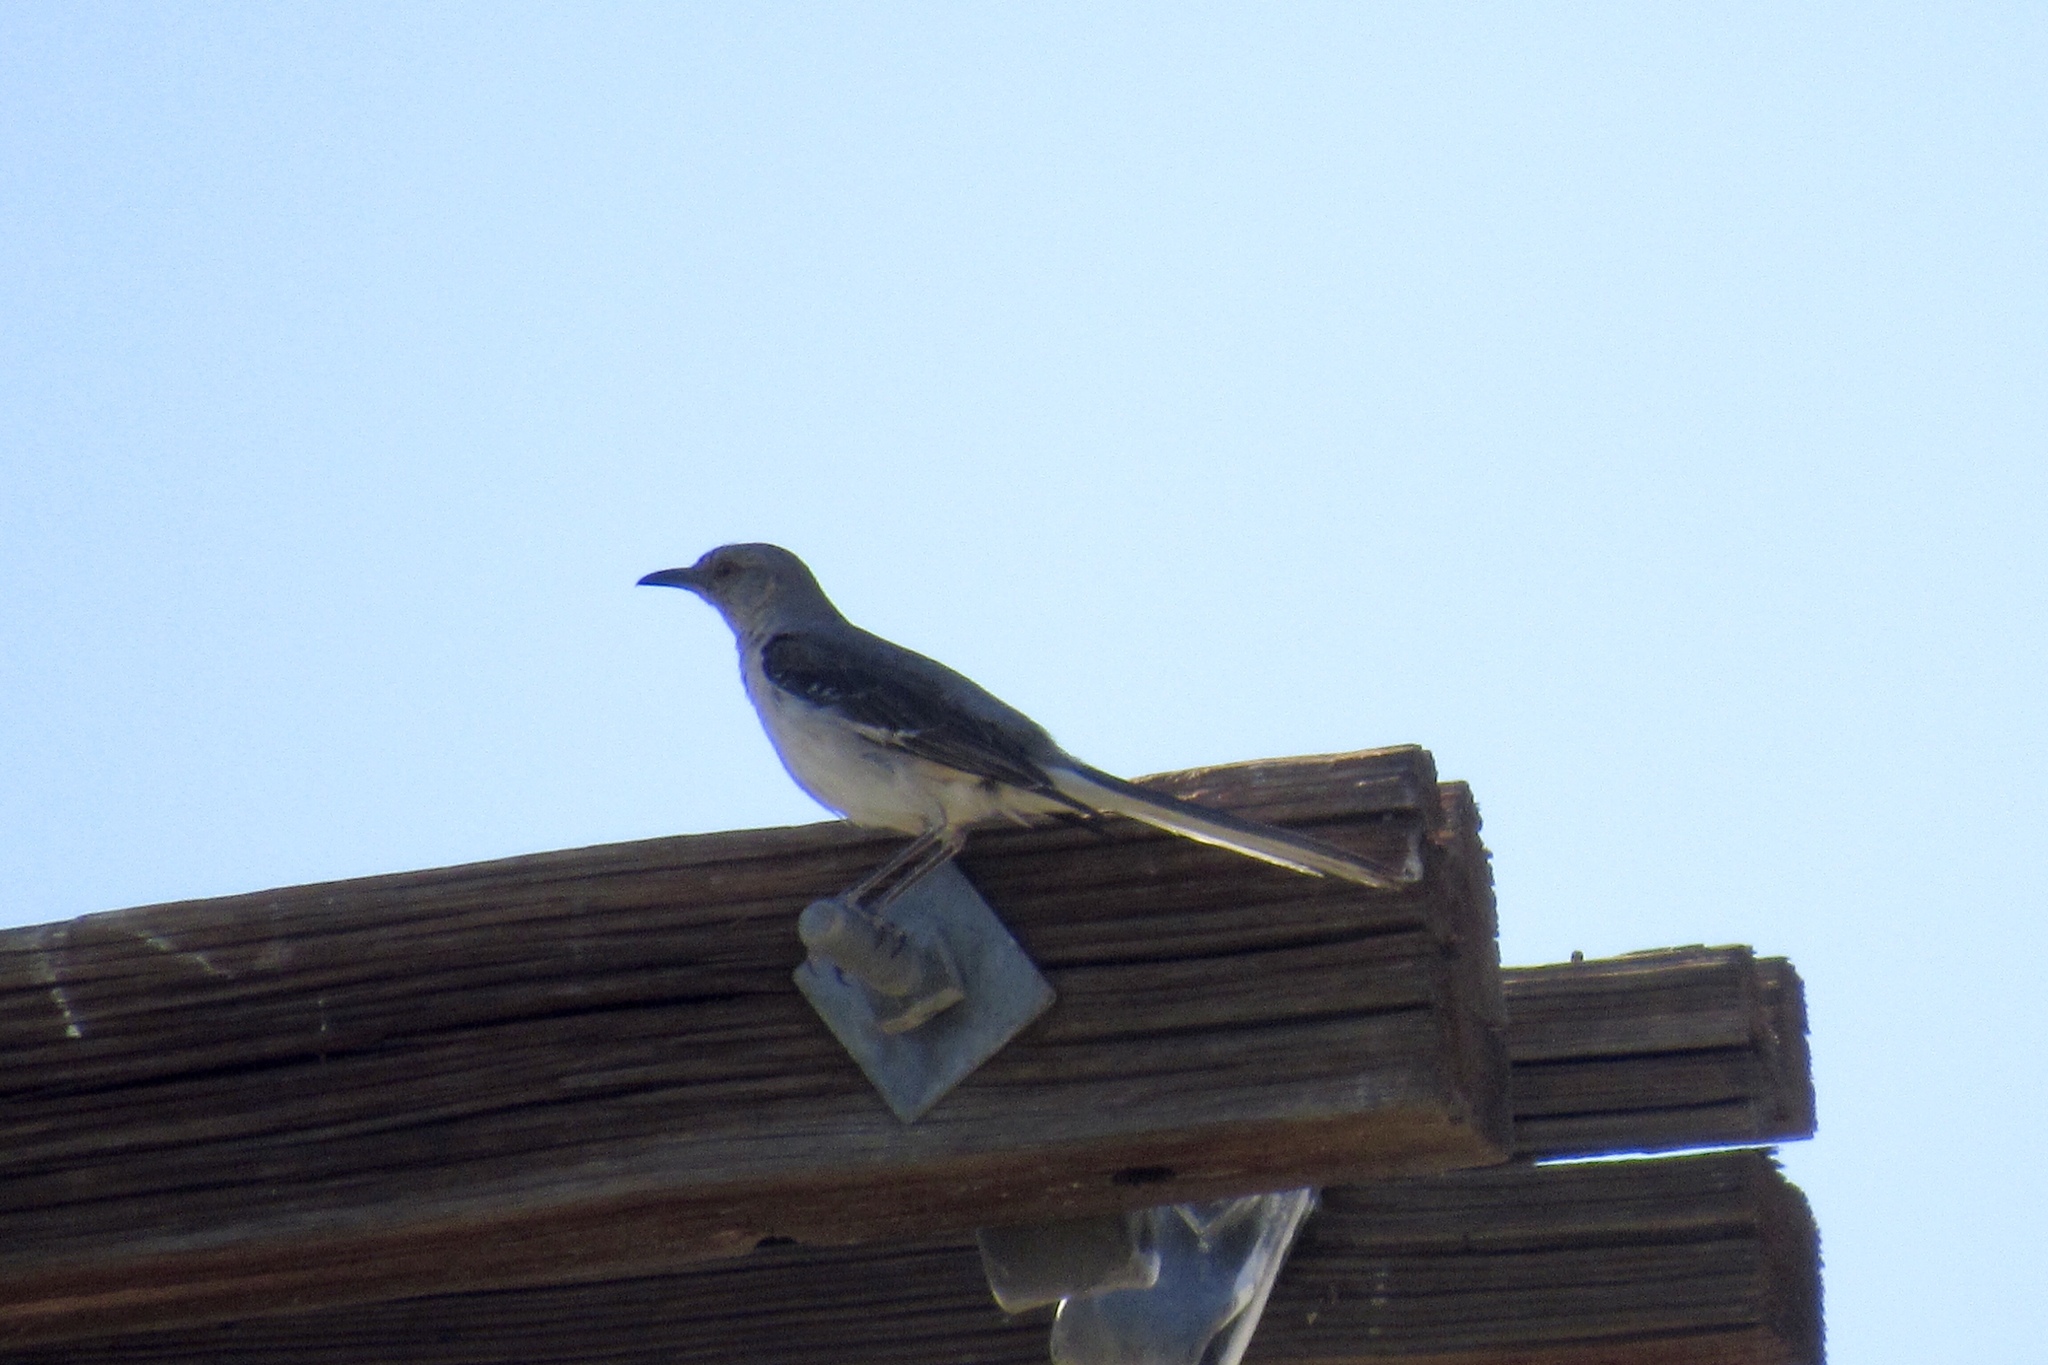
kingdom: Animalia
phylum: Chordata
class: Aves
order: Passeriformes
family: Mimidae
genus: Mimus
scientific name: Mimus polyglottos
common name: Northern mockingbird
